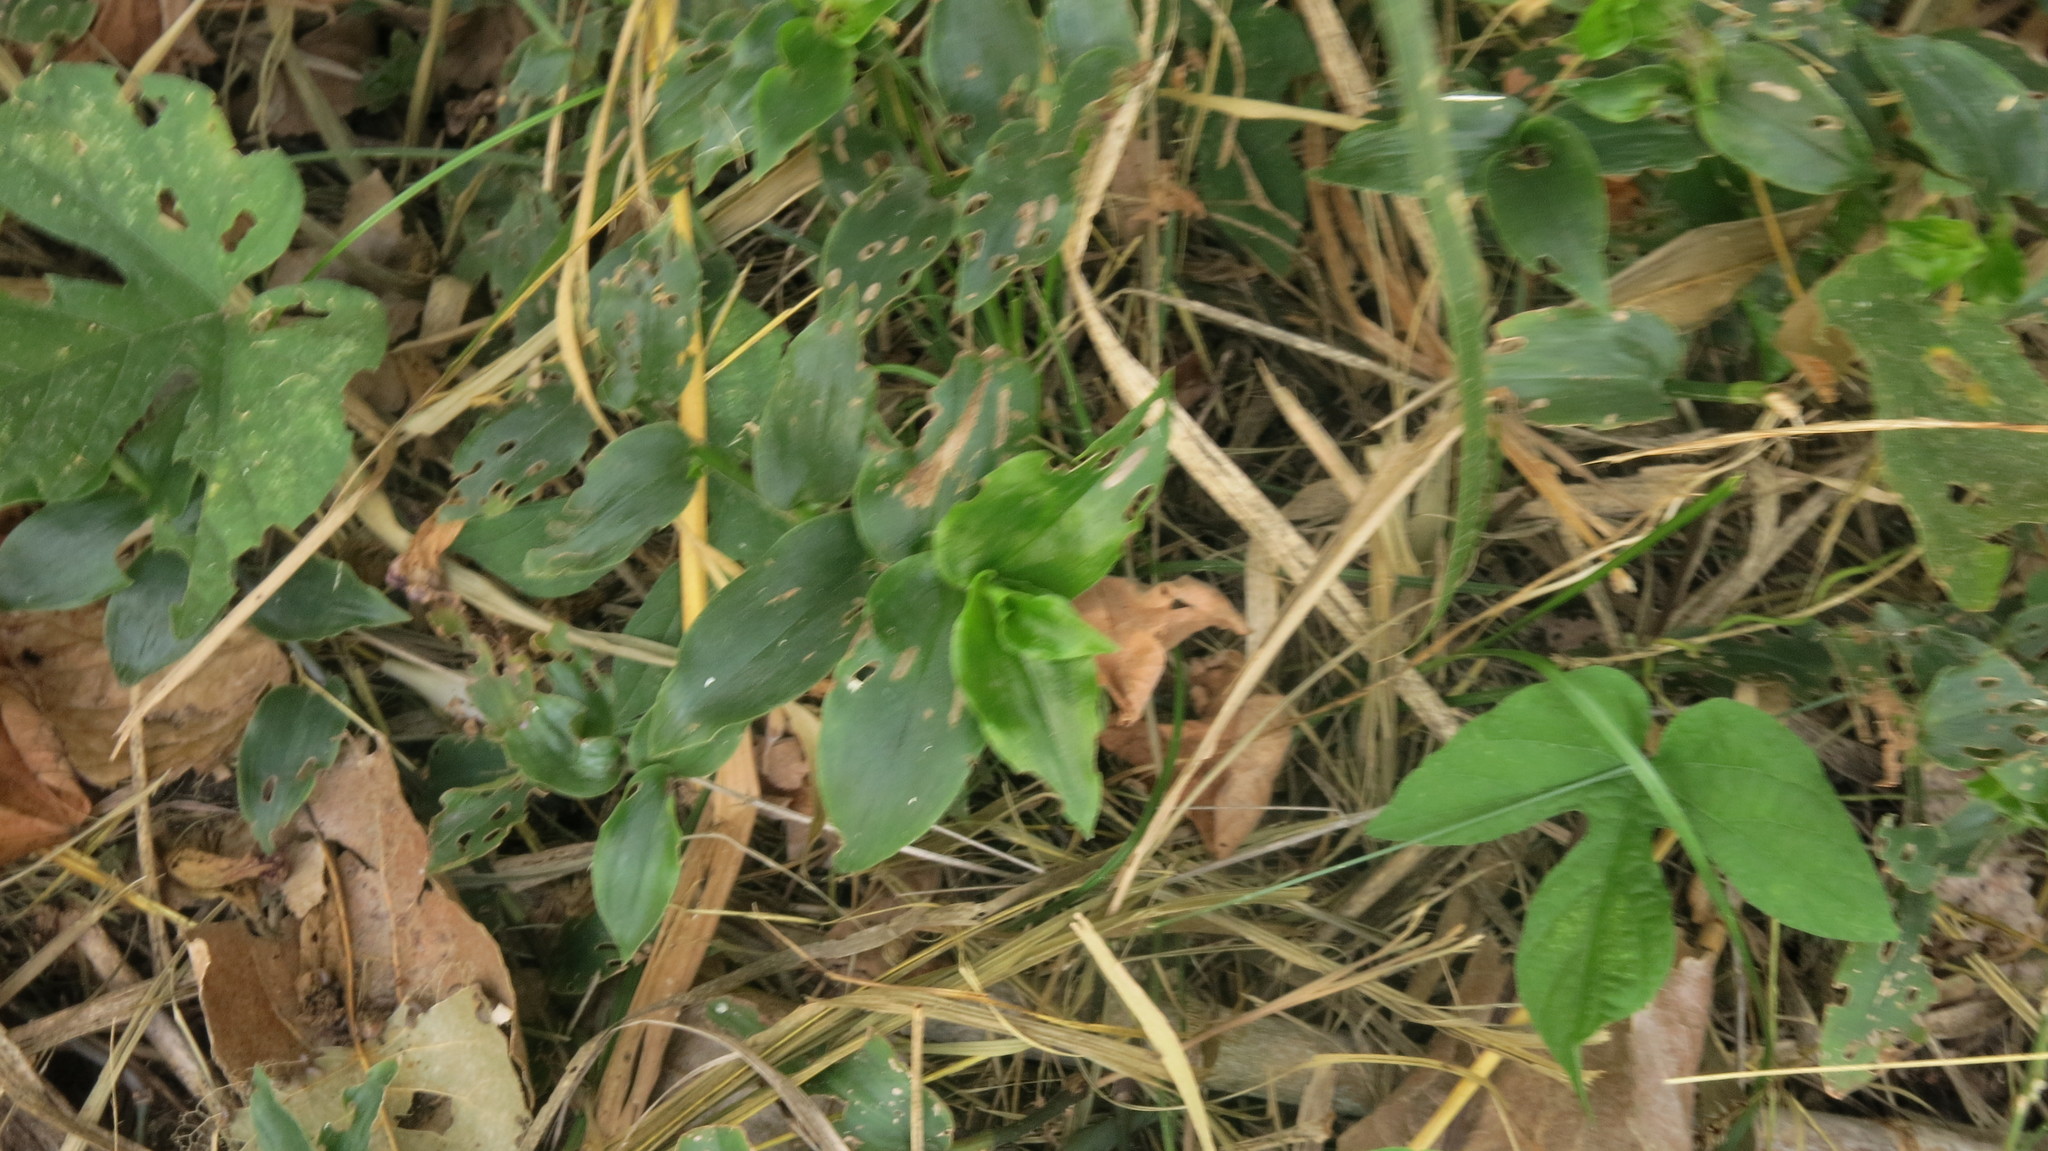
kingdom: Plantae
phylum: Tracheophyta
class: Liliopsida
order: Commelinales
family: Commelinaceae
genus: Tradescantia
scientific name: Tradescantia fluminensis
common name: Wandering-jew
